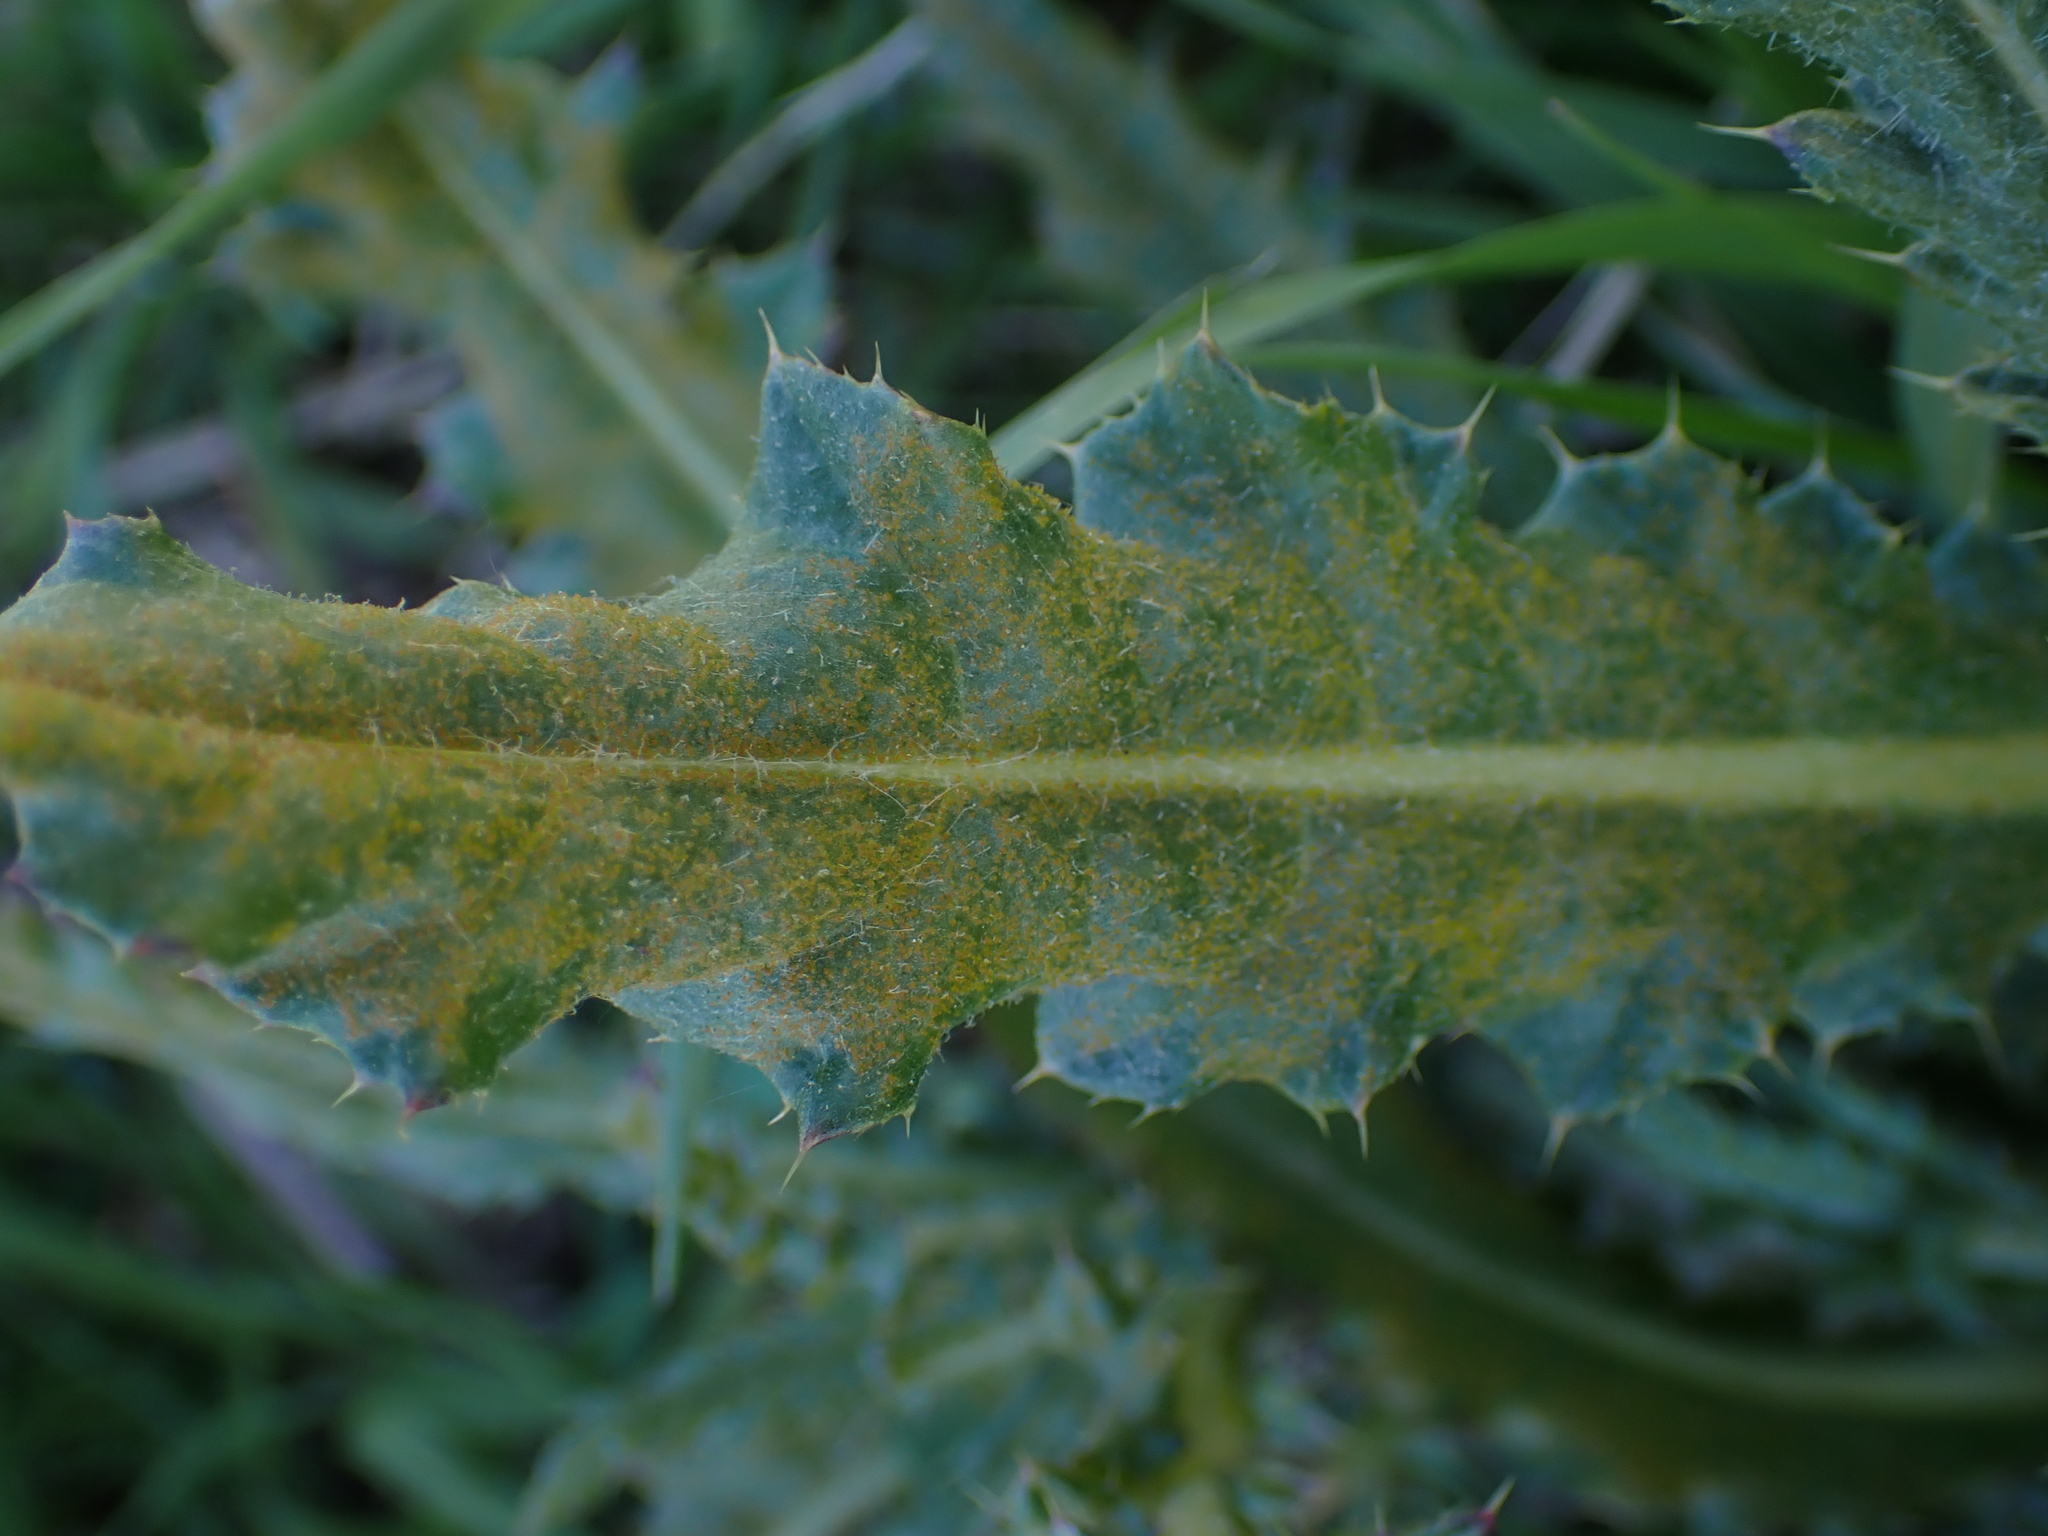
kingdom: Fungi
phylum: Basidiomycota
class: Pucciniomycetes
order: Pucciniales
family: Pucciniaceae
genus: Puccinia
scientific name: Puccinia suaveolens
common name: Thistle rust
